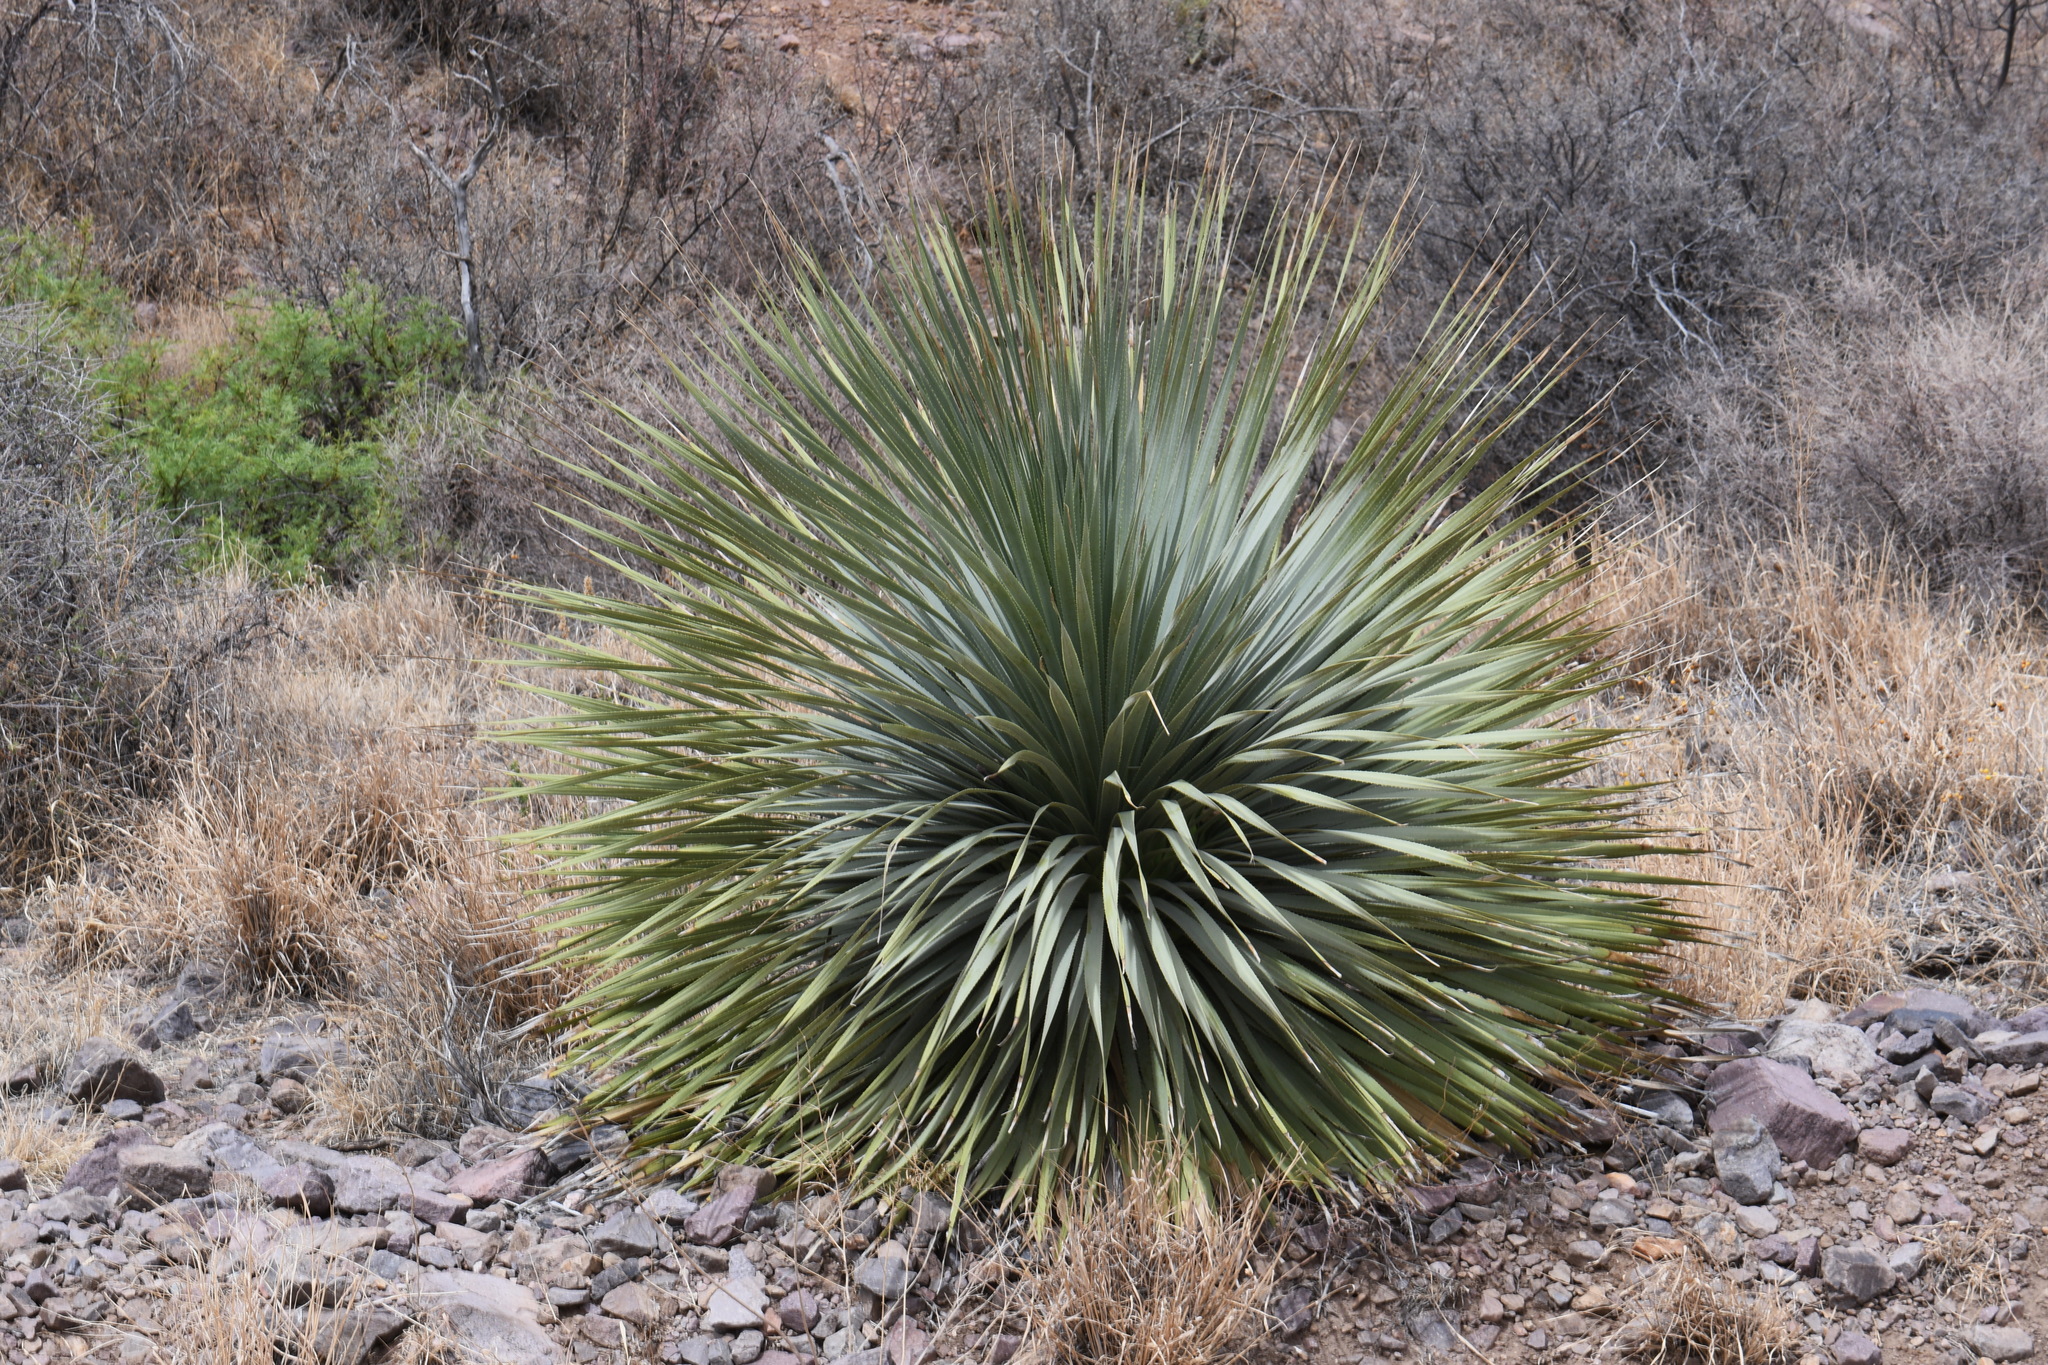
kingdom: Plantae
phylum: Tracheophyta
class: Liliopsida
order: Asparagales
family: Asparagaceae
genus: Dasylirion
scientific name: Dasylirion wheeleri
